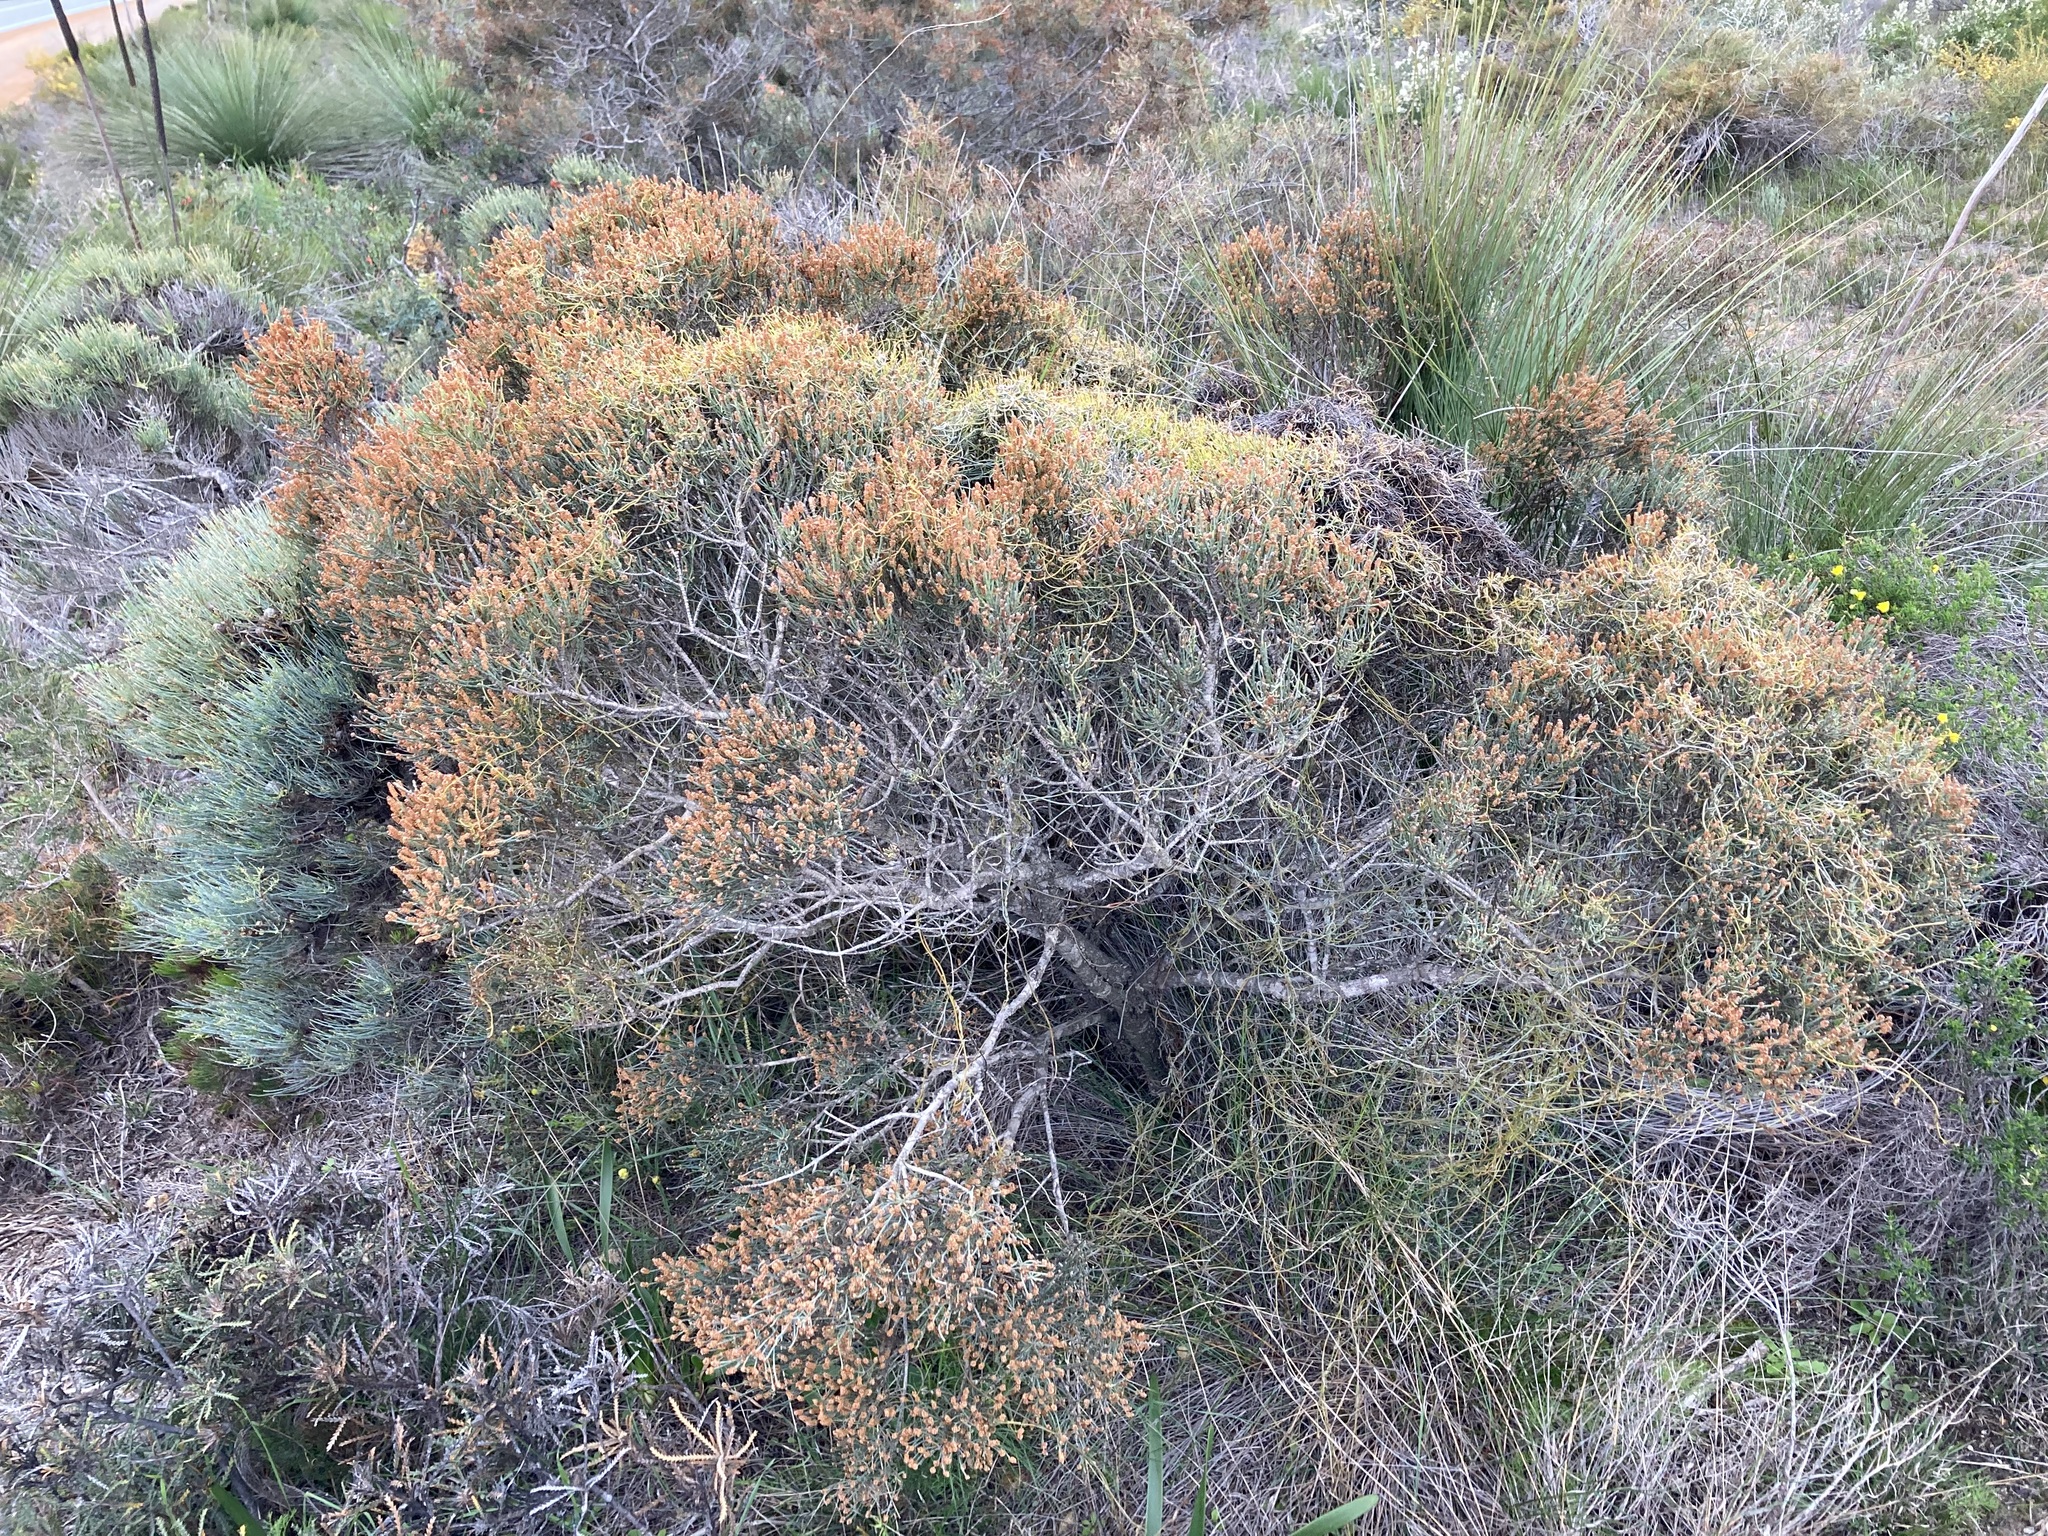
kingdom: Plantae
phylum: Tracheophyta
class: Magnoliopsida
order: Fagales
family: Casuarinaceae
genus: Allocasuarina
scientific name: Allocasuarina humilis
